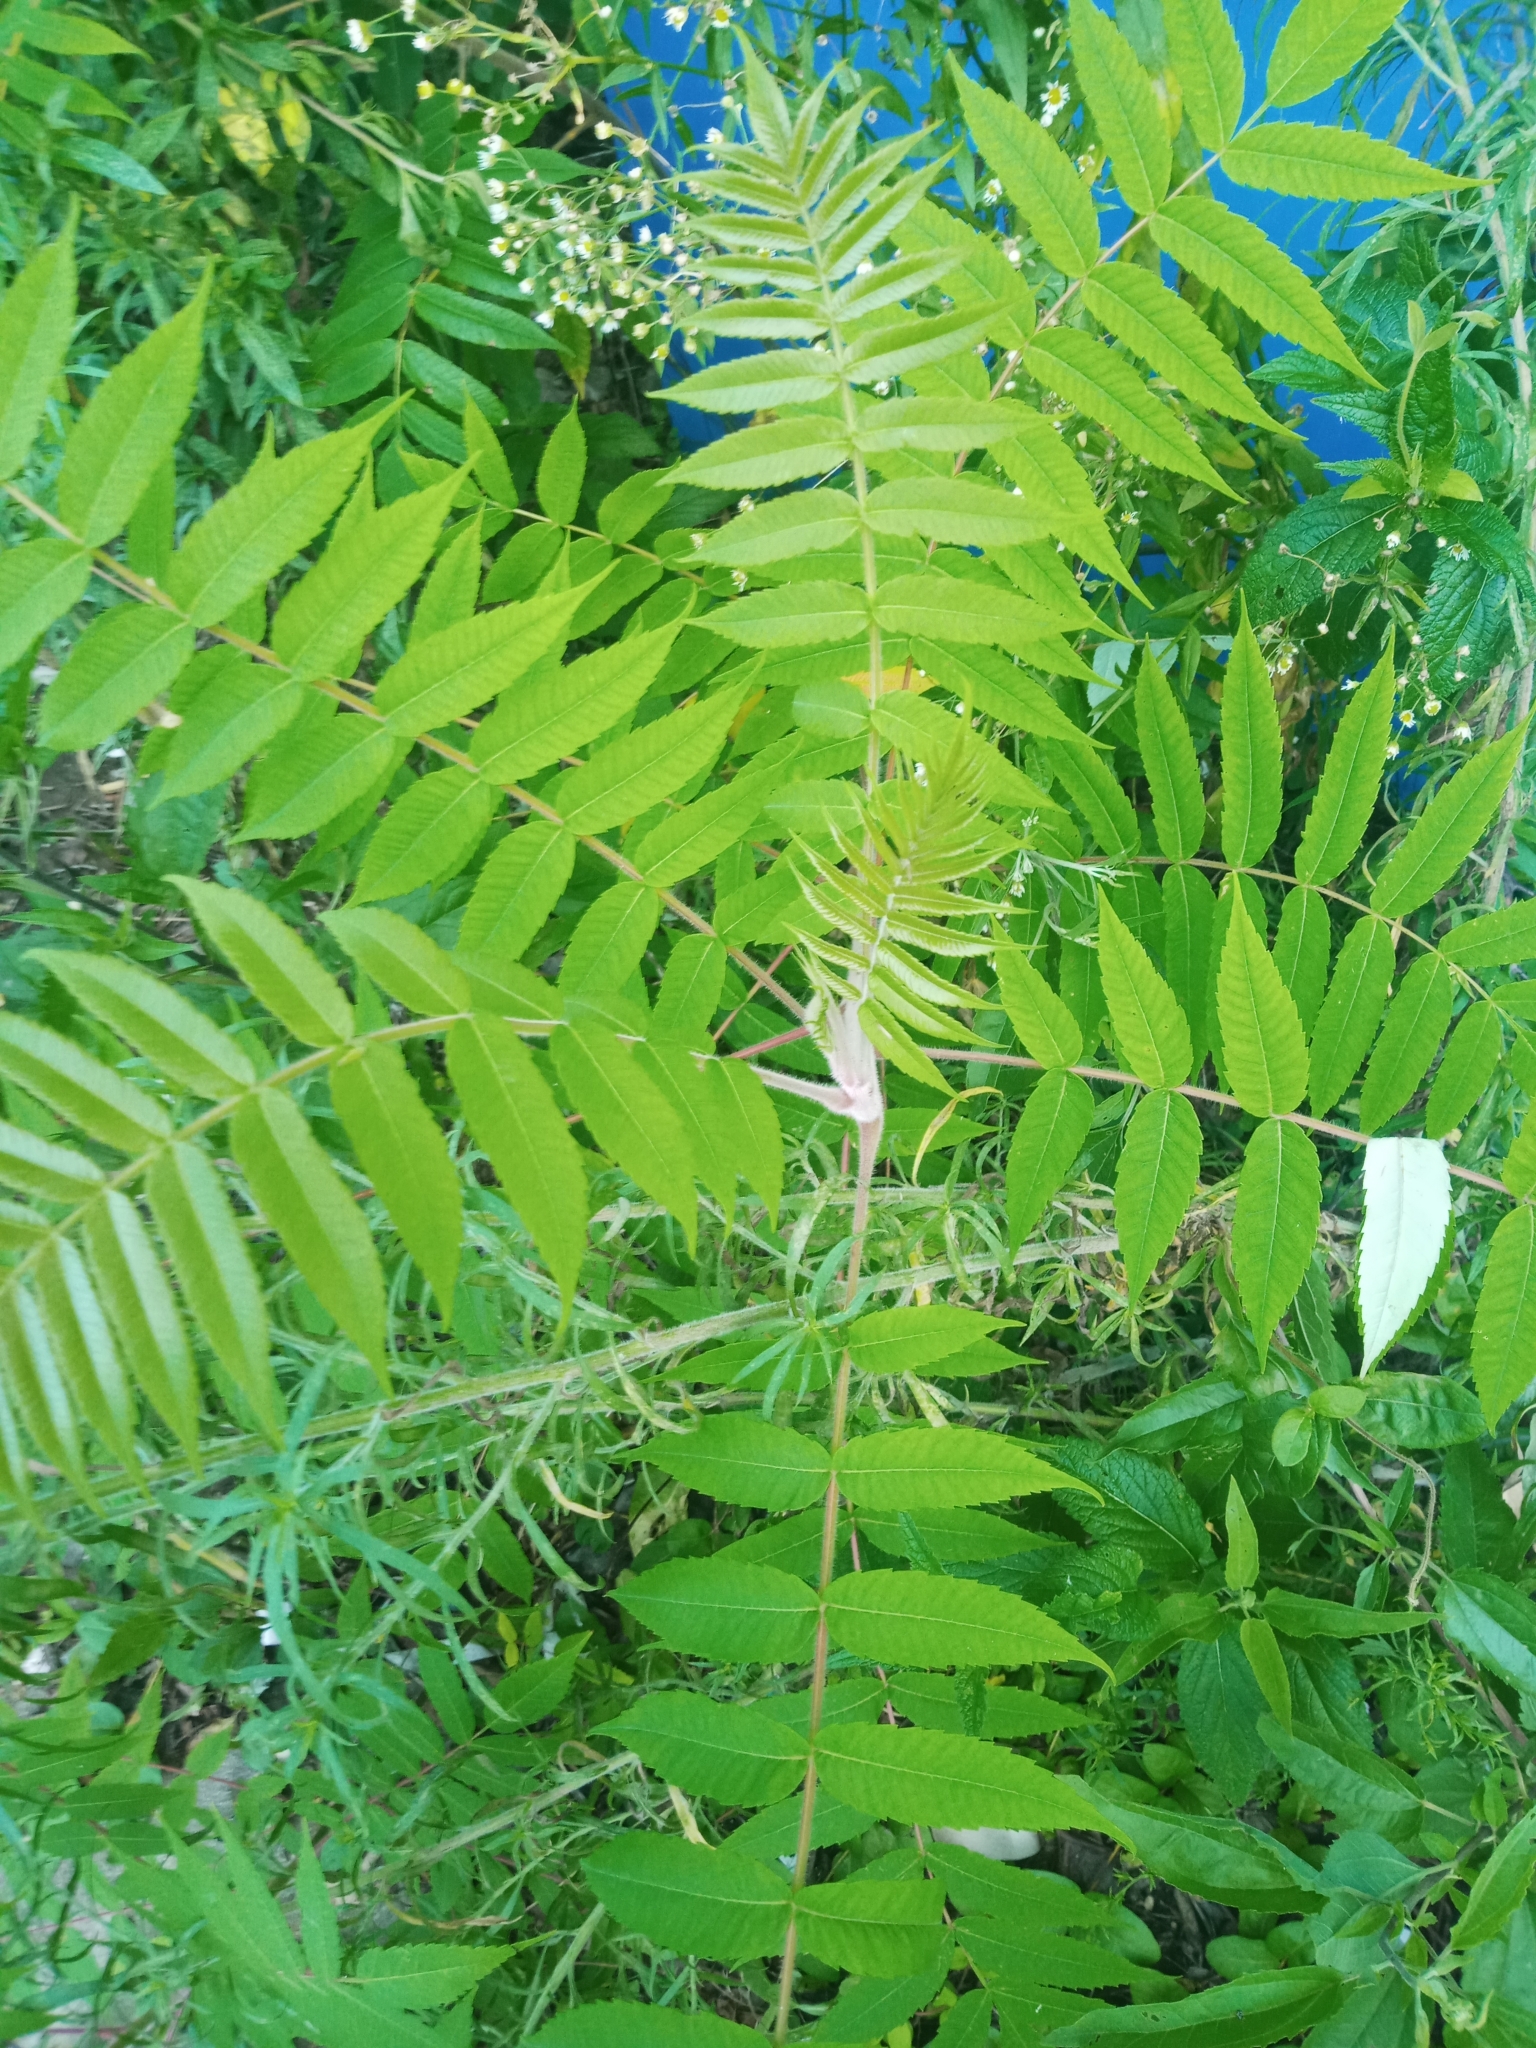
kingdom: Plantae
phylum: Tracheophyta
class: Magnoliopsida
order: Sapindales
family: Anacardiaceae
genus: Rhus
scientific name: Rhus typhina
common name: Staghorn sumac
